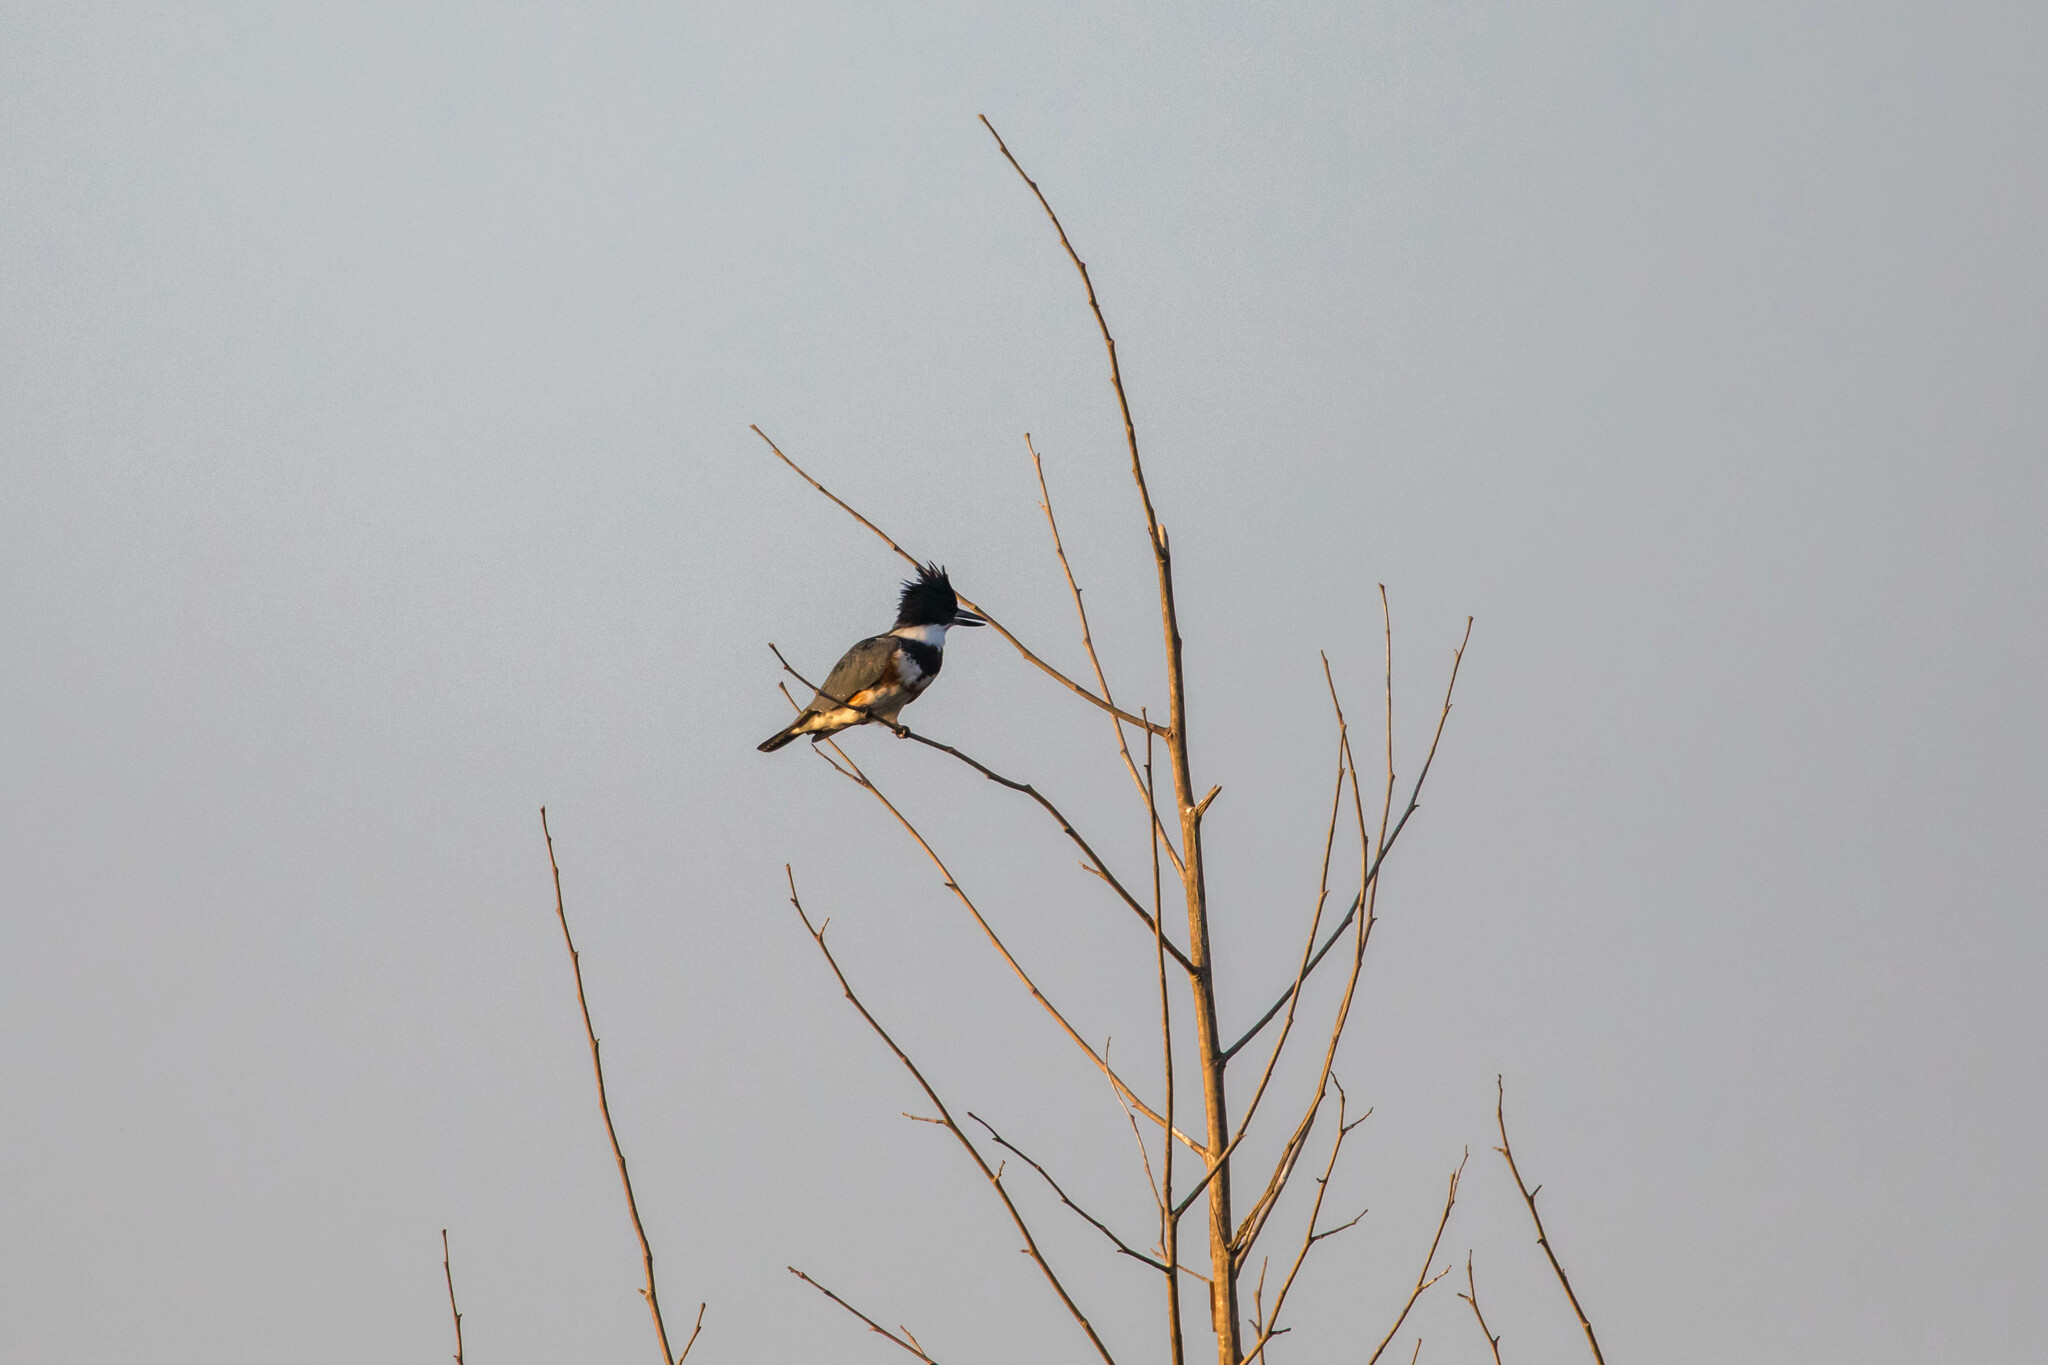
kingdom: Animalia
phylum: Chordata
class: Aves
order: Coraciiformes
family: Alcedinidae
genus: Megaceryle
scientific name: Megaceryle alcyon
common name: Belted kingfisher
